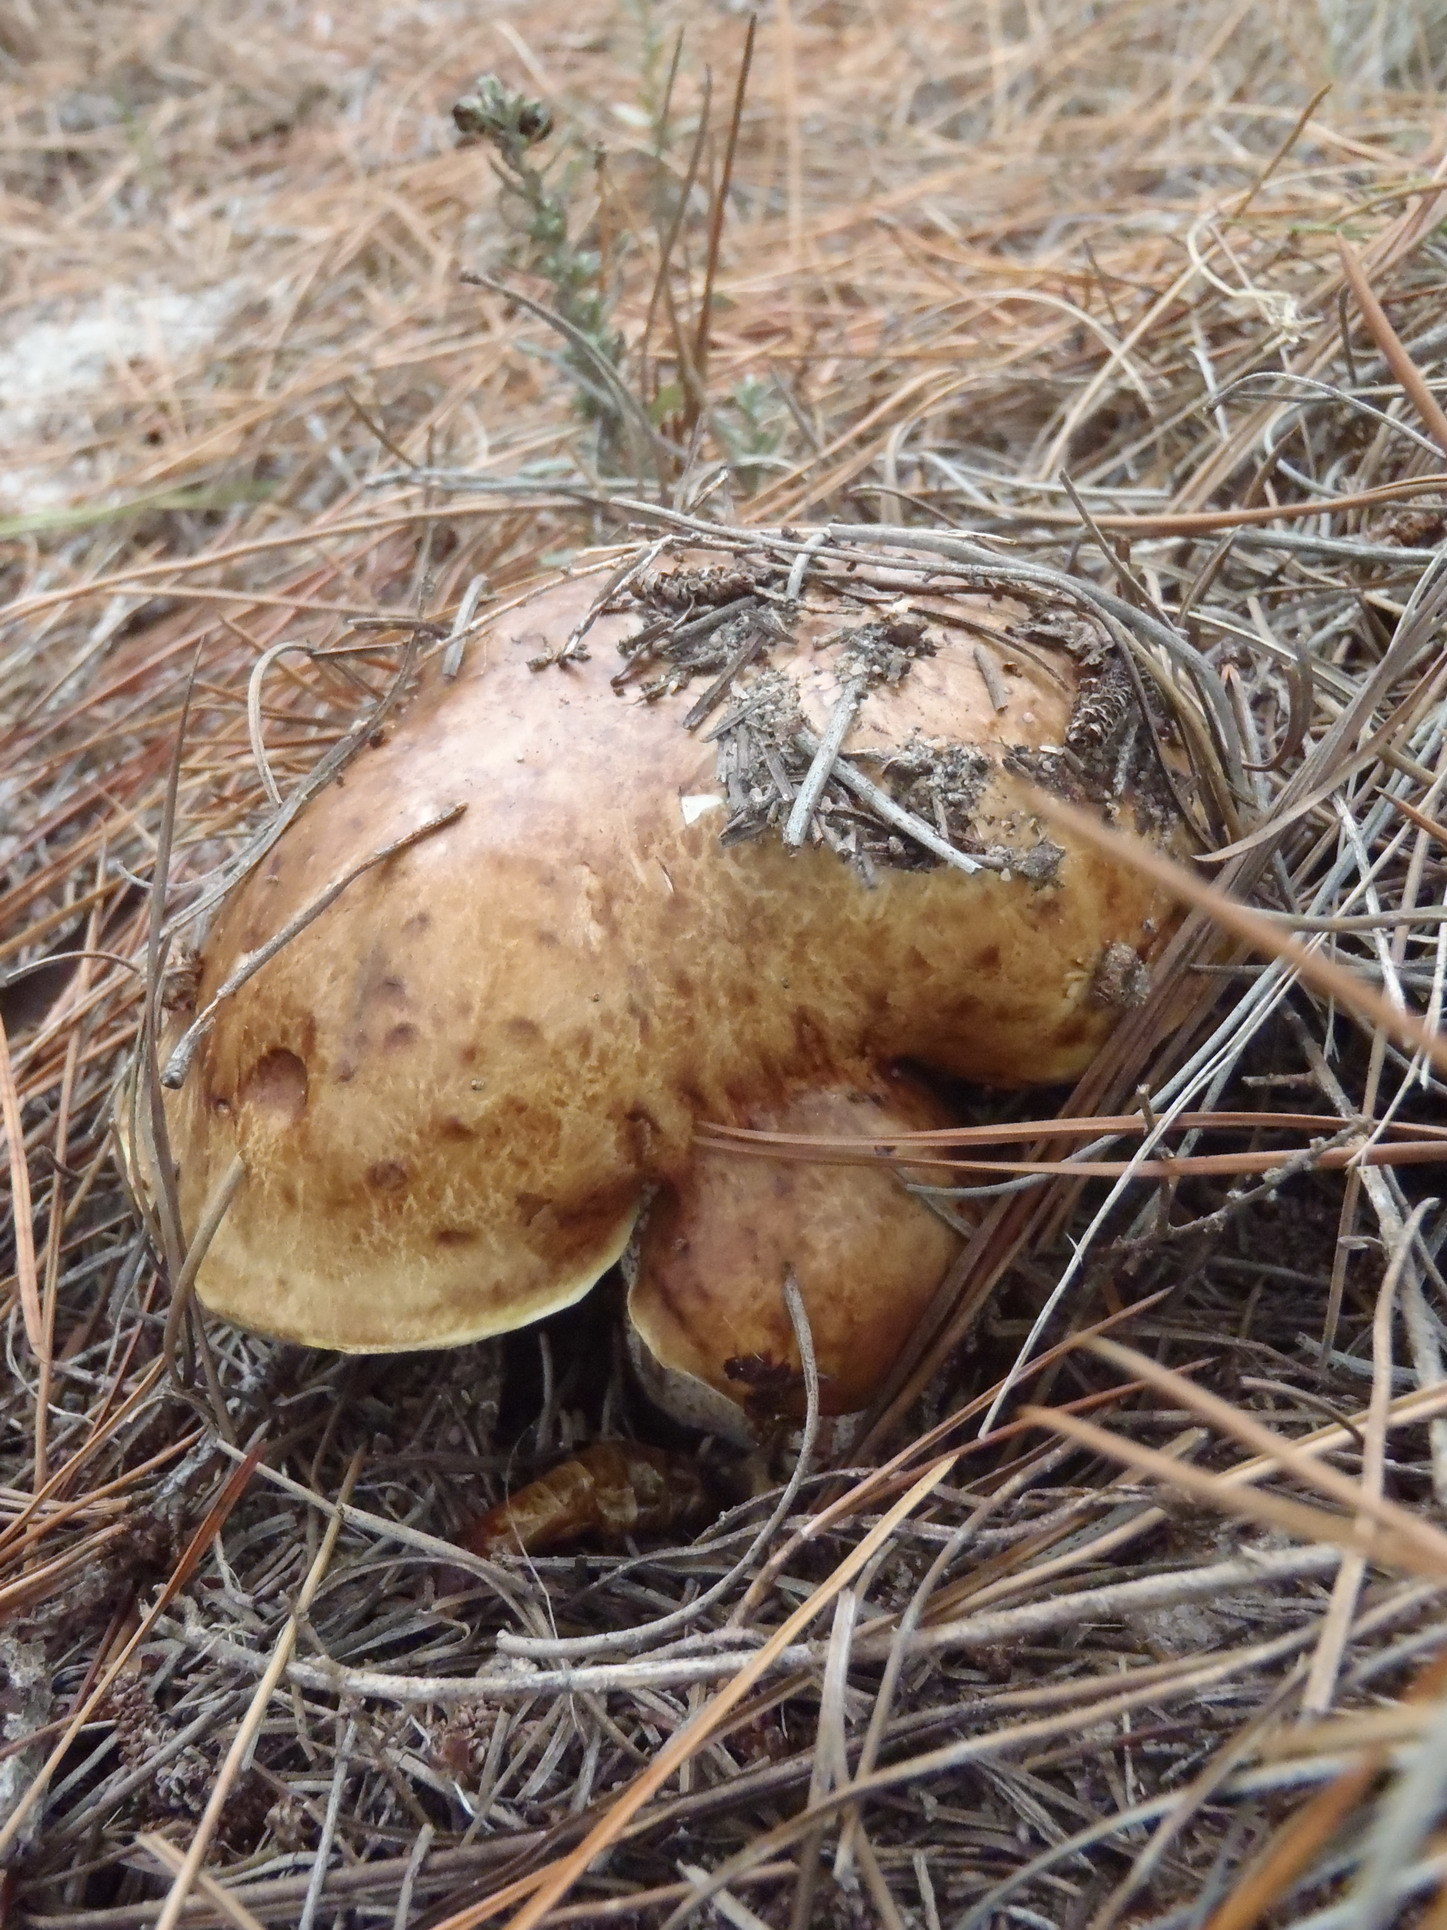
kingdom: Fungi
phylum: Basidiomycota
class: Agaricomycetes
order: Boletales
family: Suillaceae
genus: Suillus
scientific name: Suillus bellinii
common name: Champagne bolete
